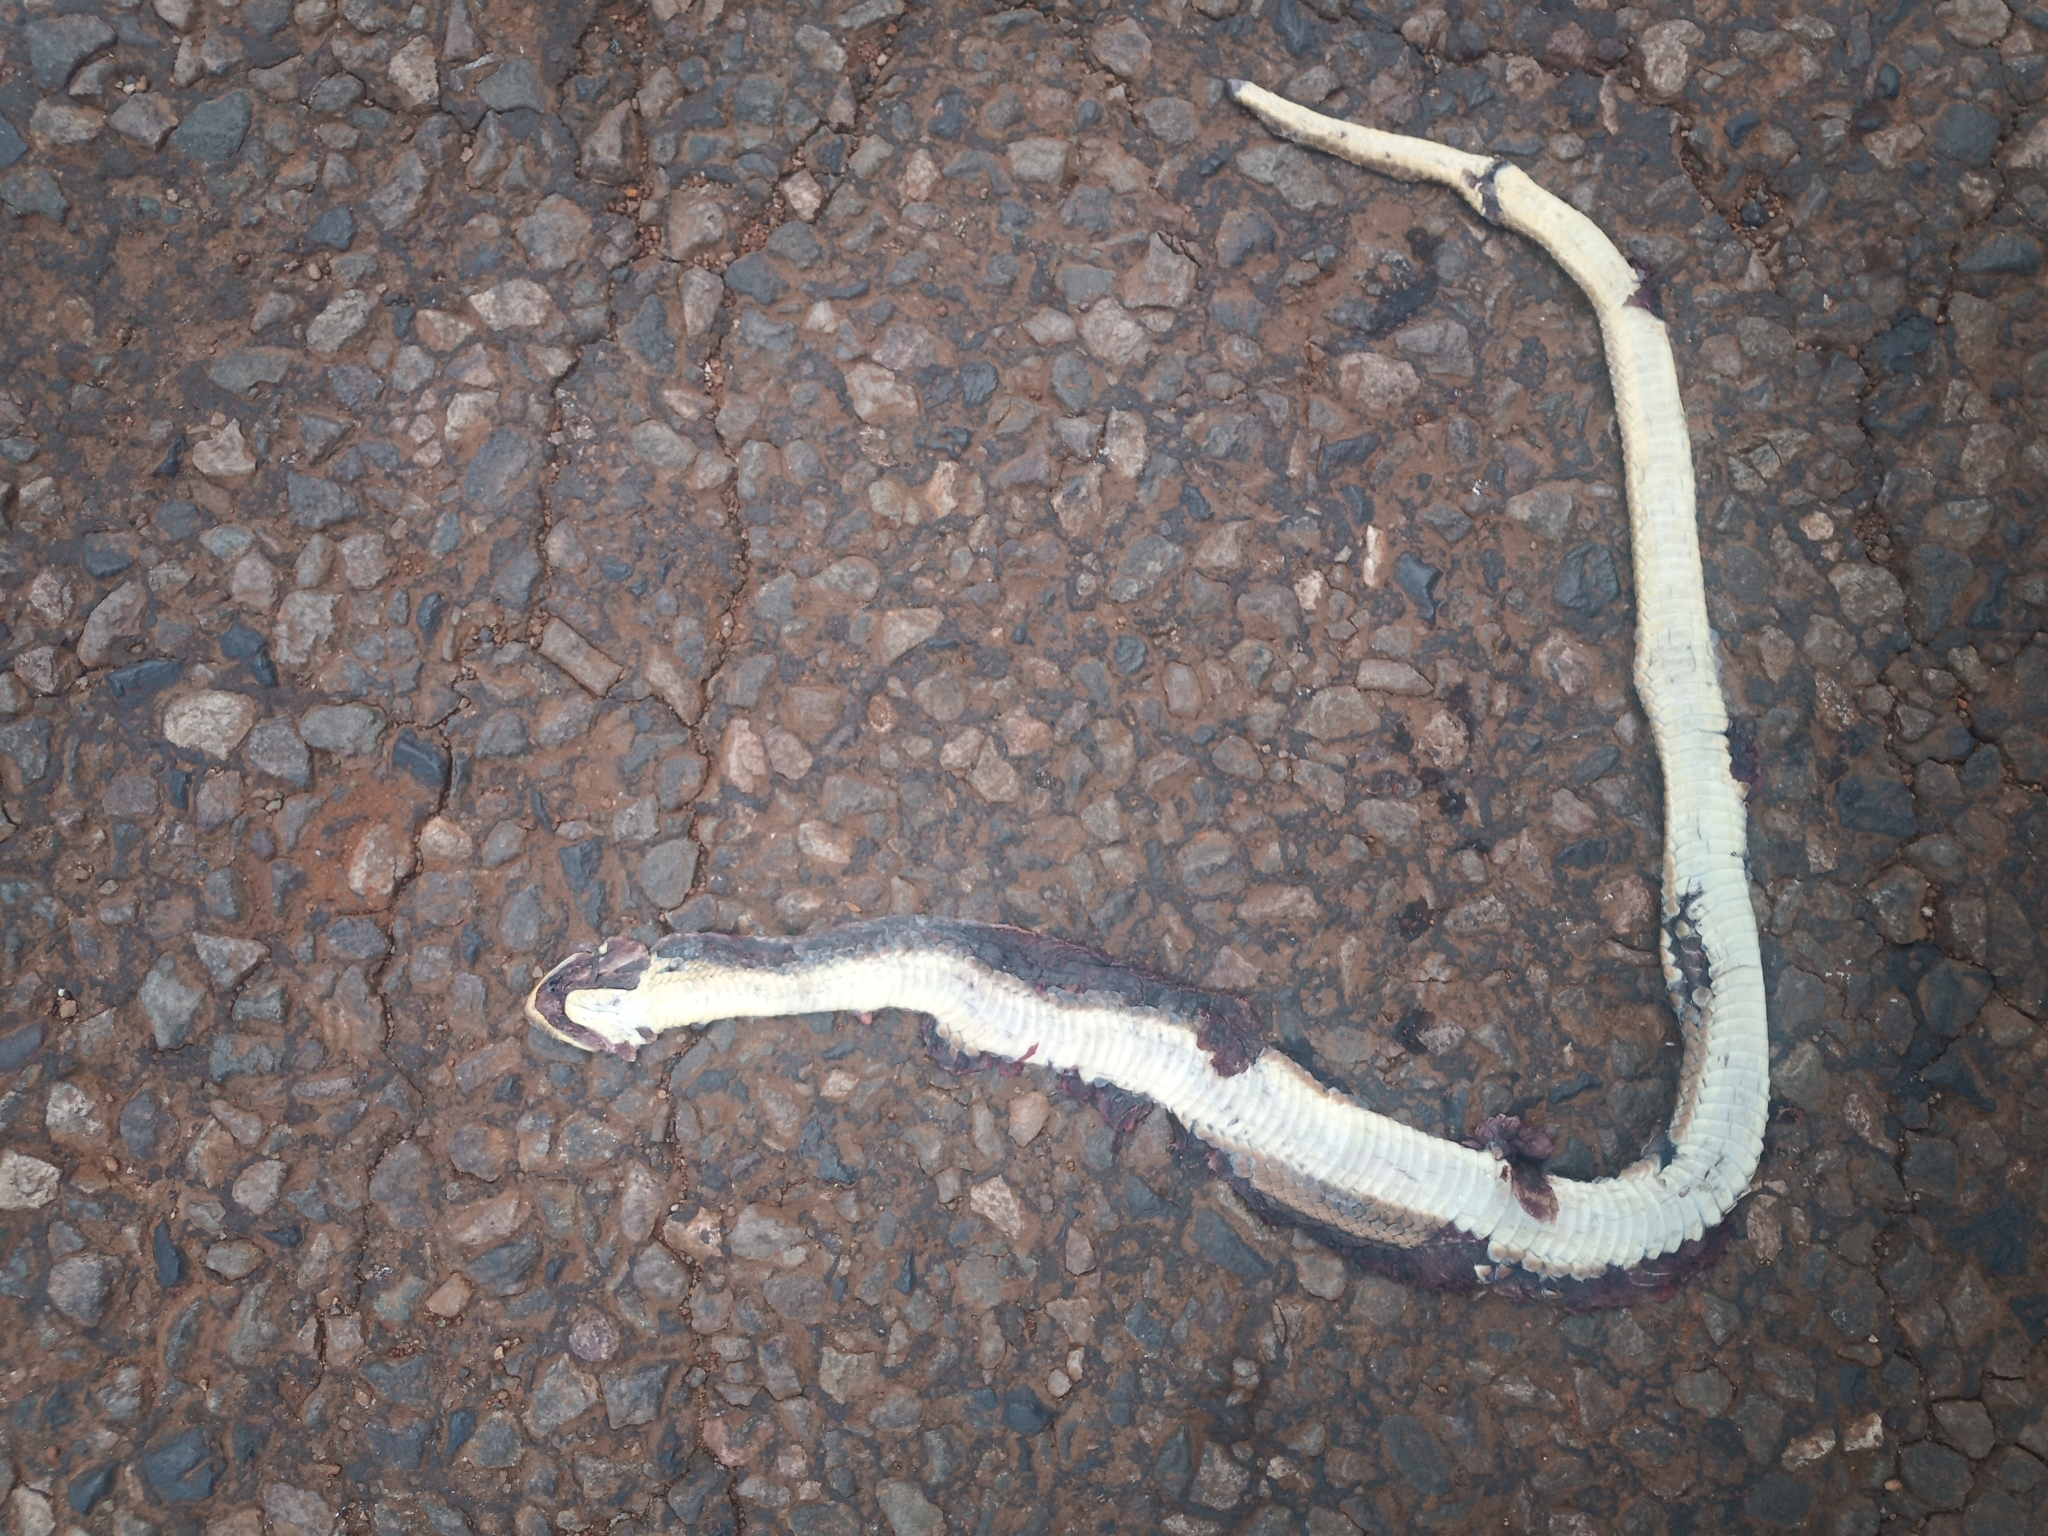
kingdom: Animalia
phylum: Chordata
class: Squamata
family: Psammophiidae
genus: Psammophis
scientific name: Psammophis brevirostris
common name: Short-snouted grass snake
